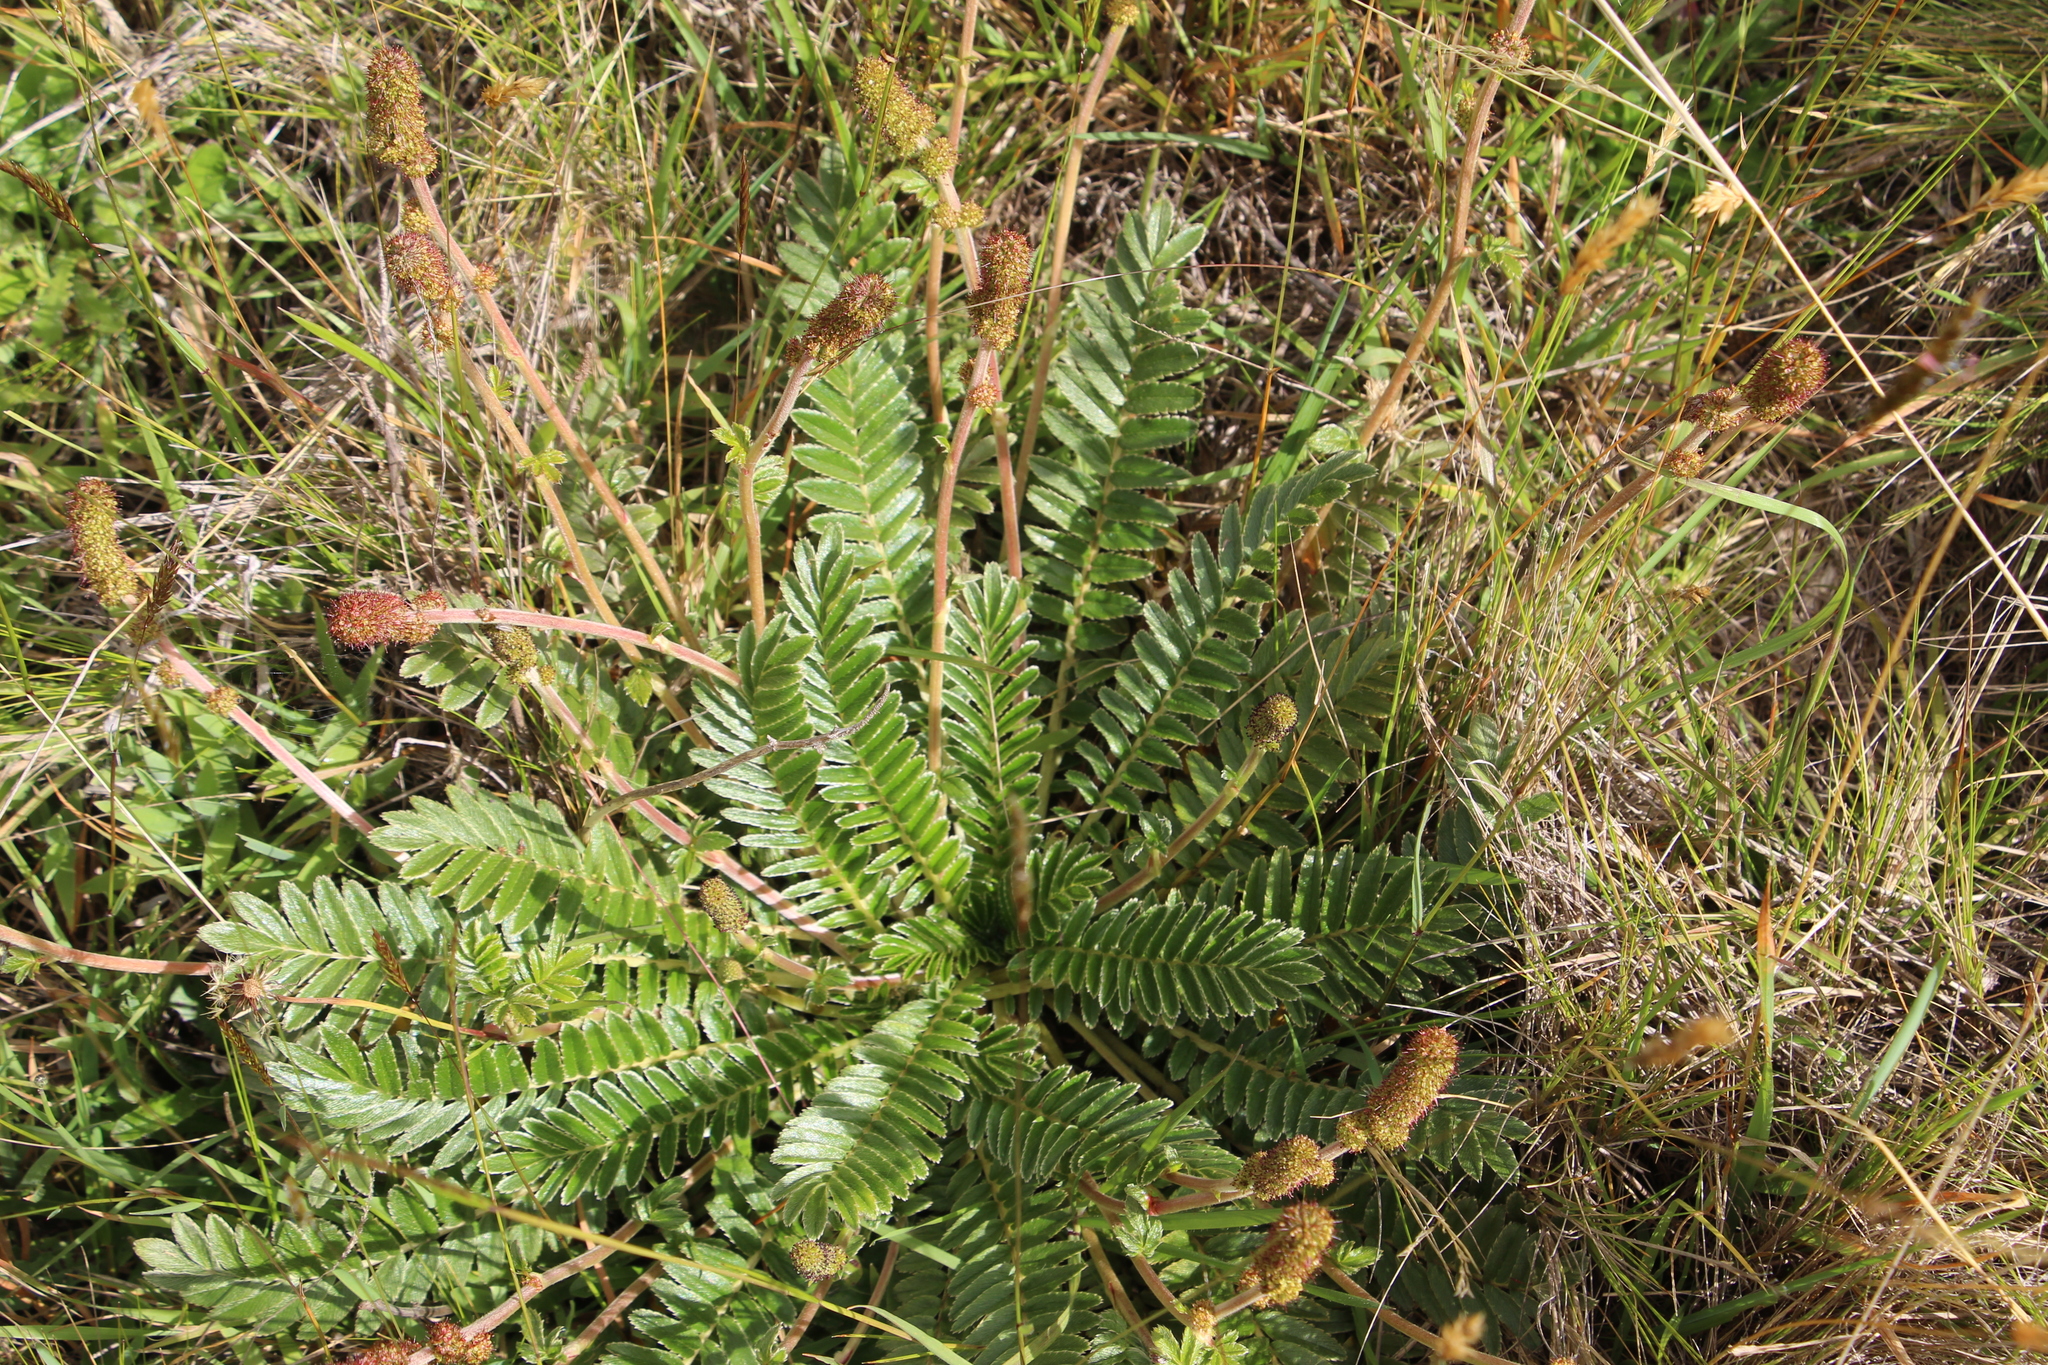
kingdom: Plantae
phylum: Tracheophyta
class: Magnoliopsida
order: Rosales
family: Rosaceae
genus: Acaena
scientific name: Acaena cylindristachya
